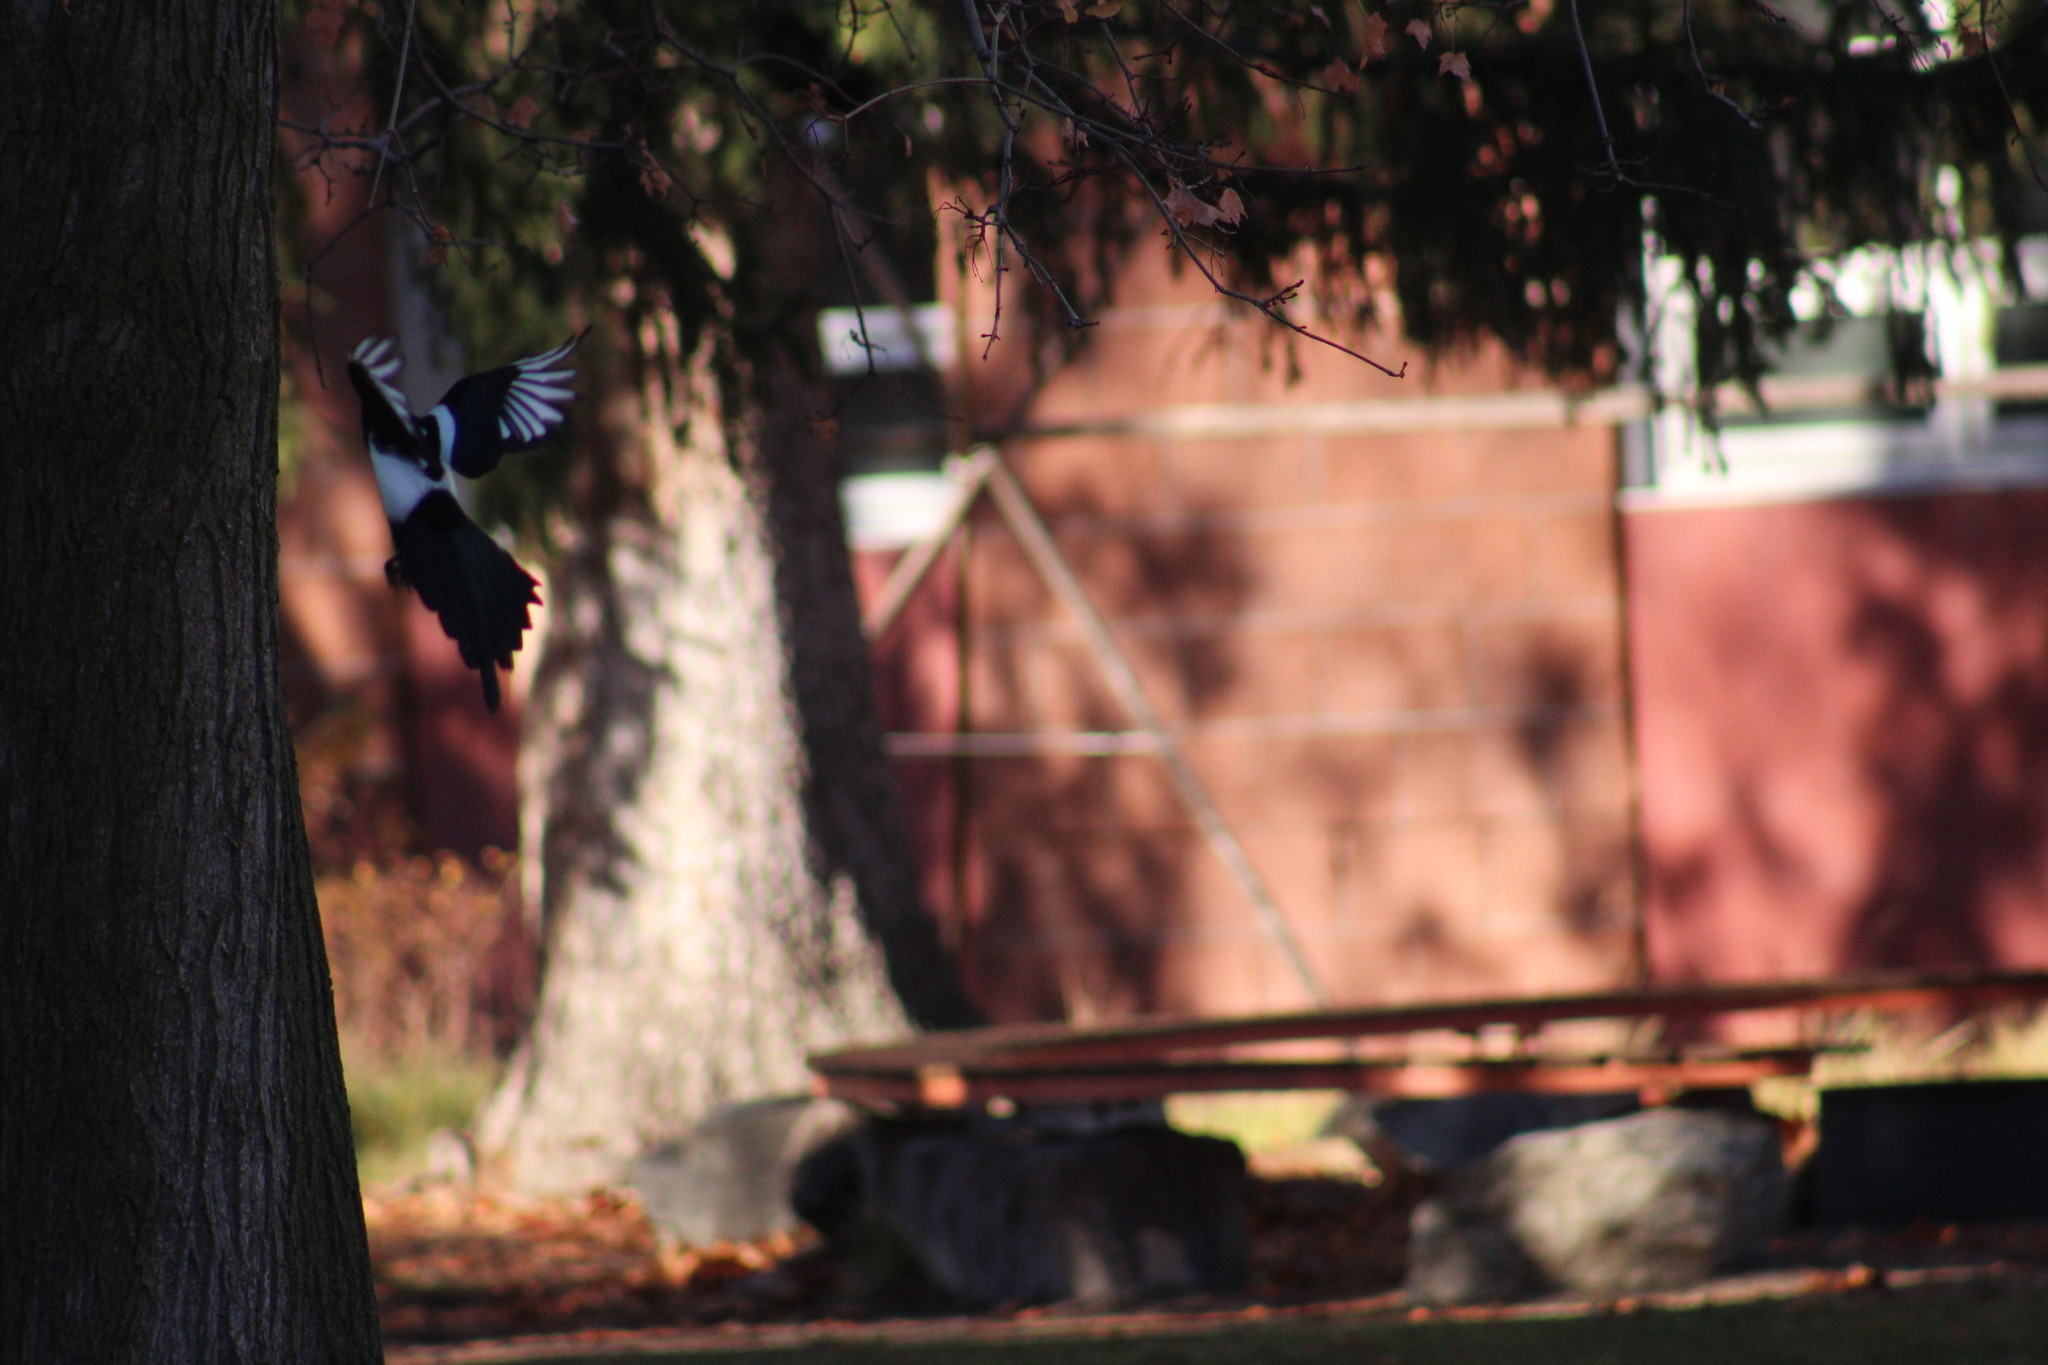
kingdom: Animalia
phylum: Chordata
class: Aves
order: Passeriformes
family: Corvidae
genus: Pica
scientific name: Pica hudsonia
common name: Black-billed magpie
